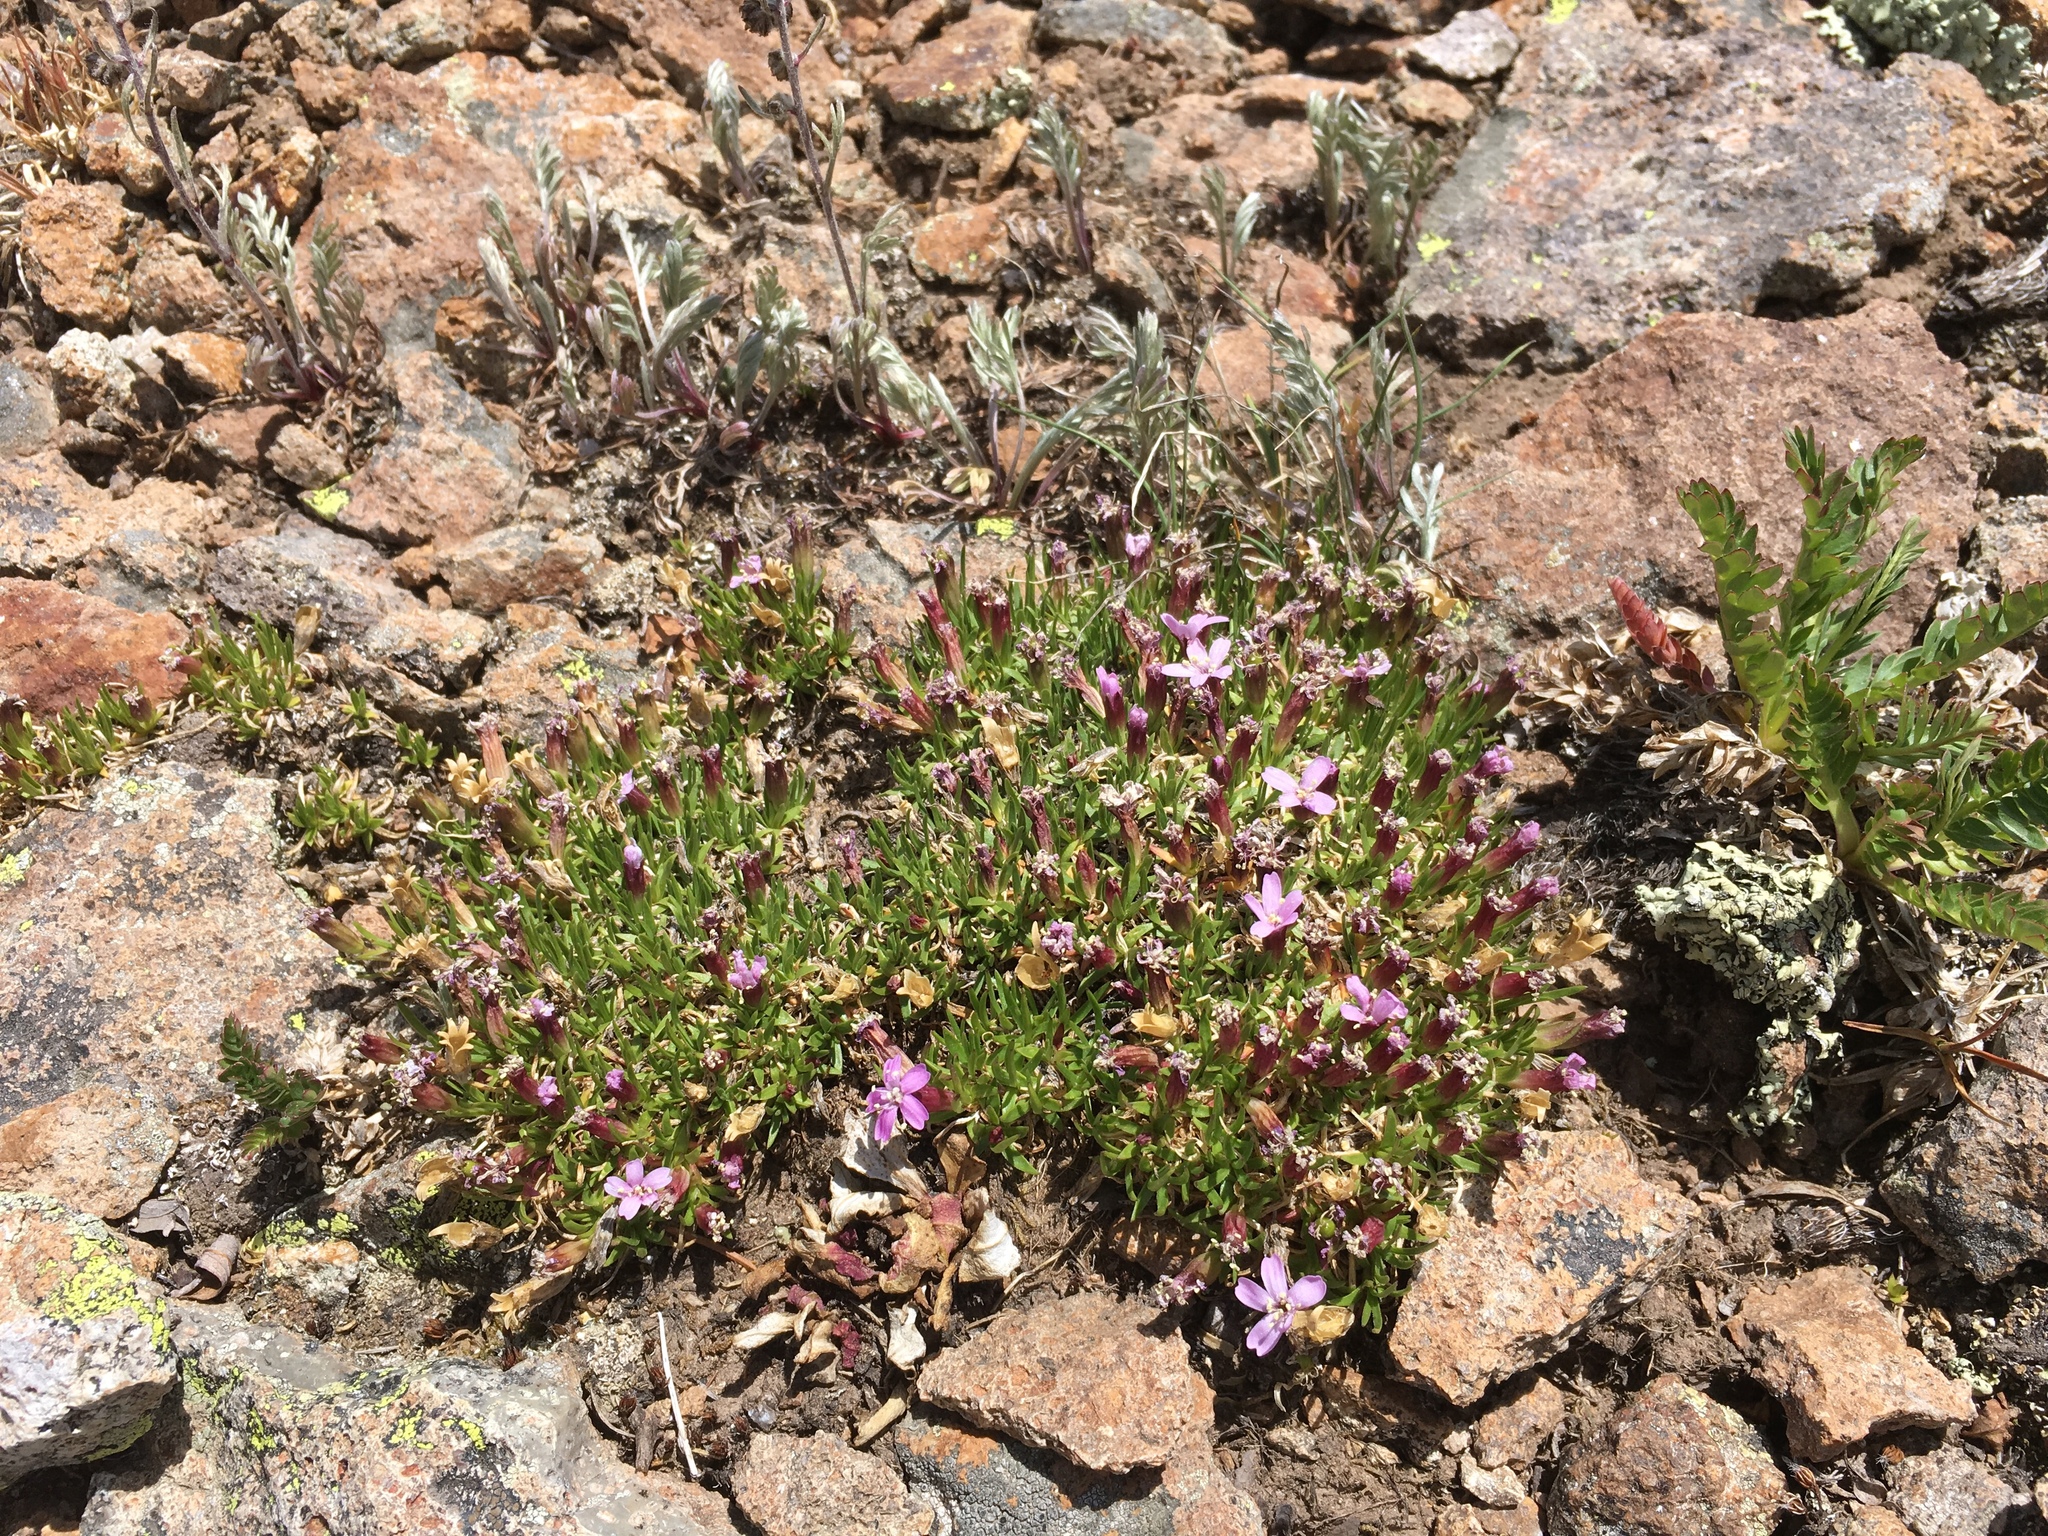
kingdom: Plantae
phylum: Tracheophyta
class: Magnoliopsida
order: Caryophyllales
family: Caryophyllaceae
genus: Silene
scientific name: Silene acaulis
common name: Moss campion
